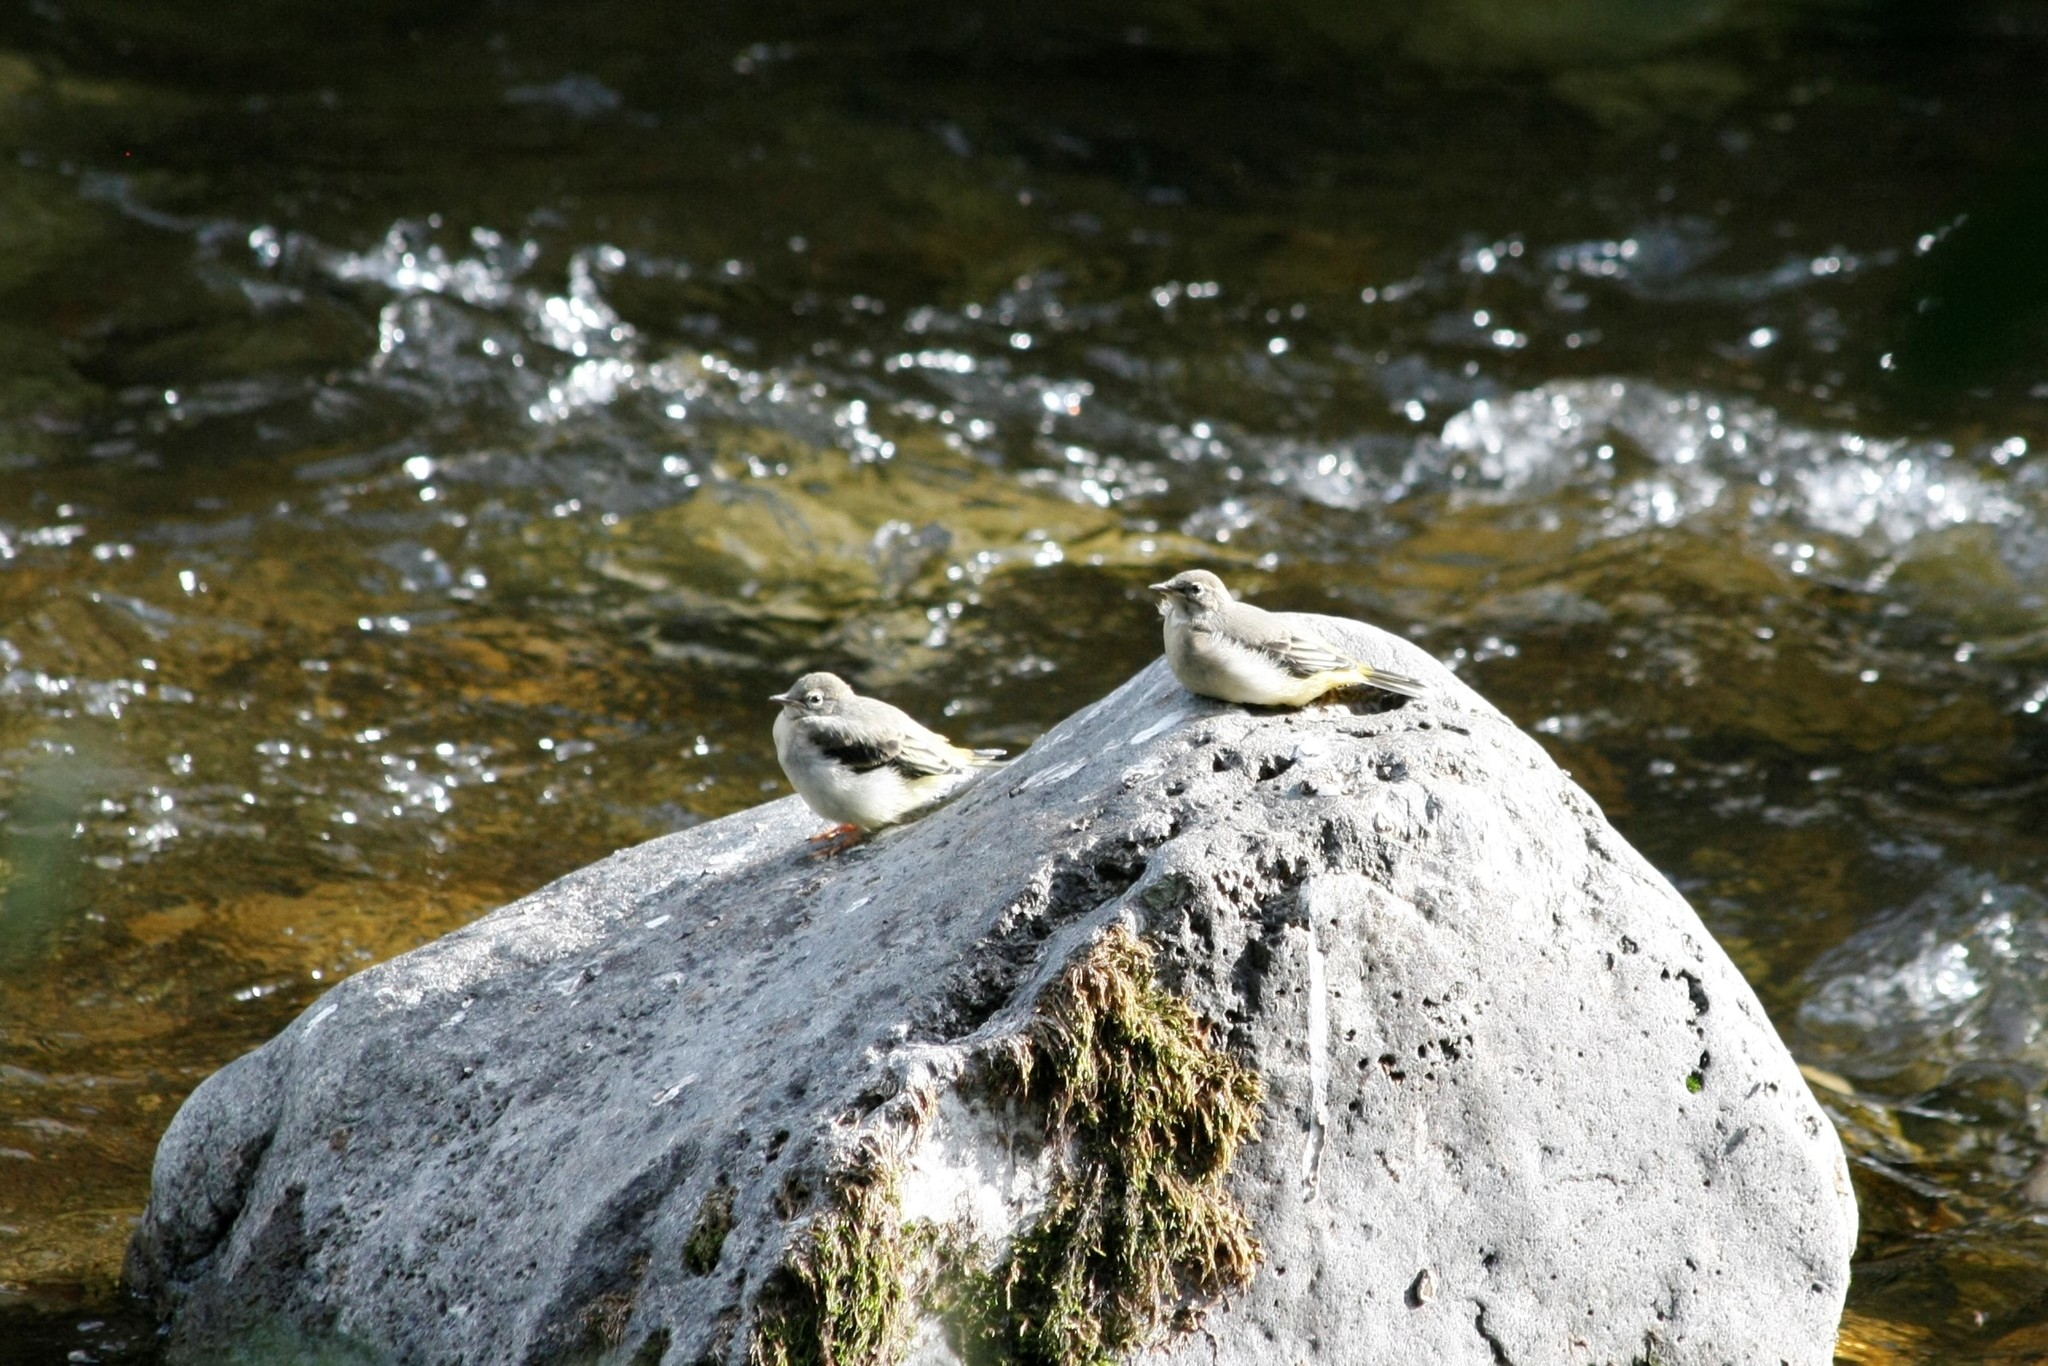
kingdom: Animalia
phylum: Chordata
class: Aves
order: Passeriformes
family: Motacillidae
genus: Motacilla
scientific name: Motacilla cinerea
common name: Grey wagtail
